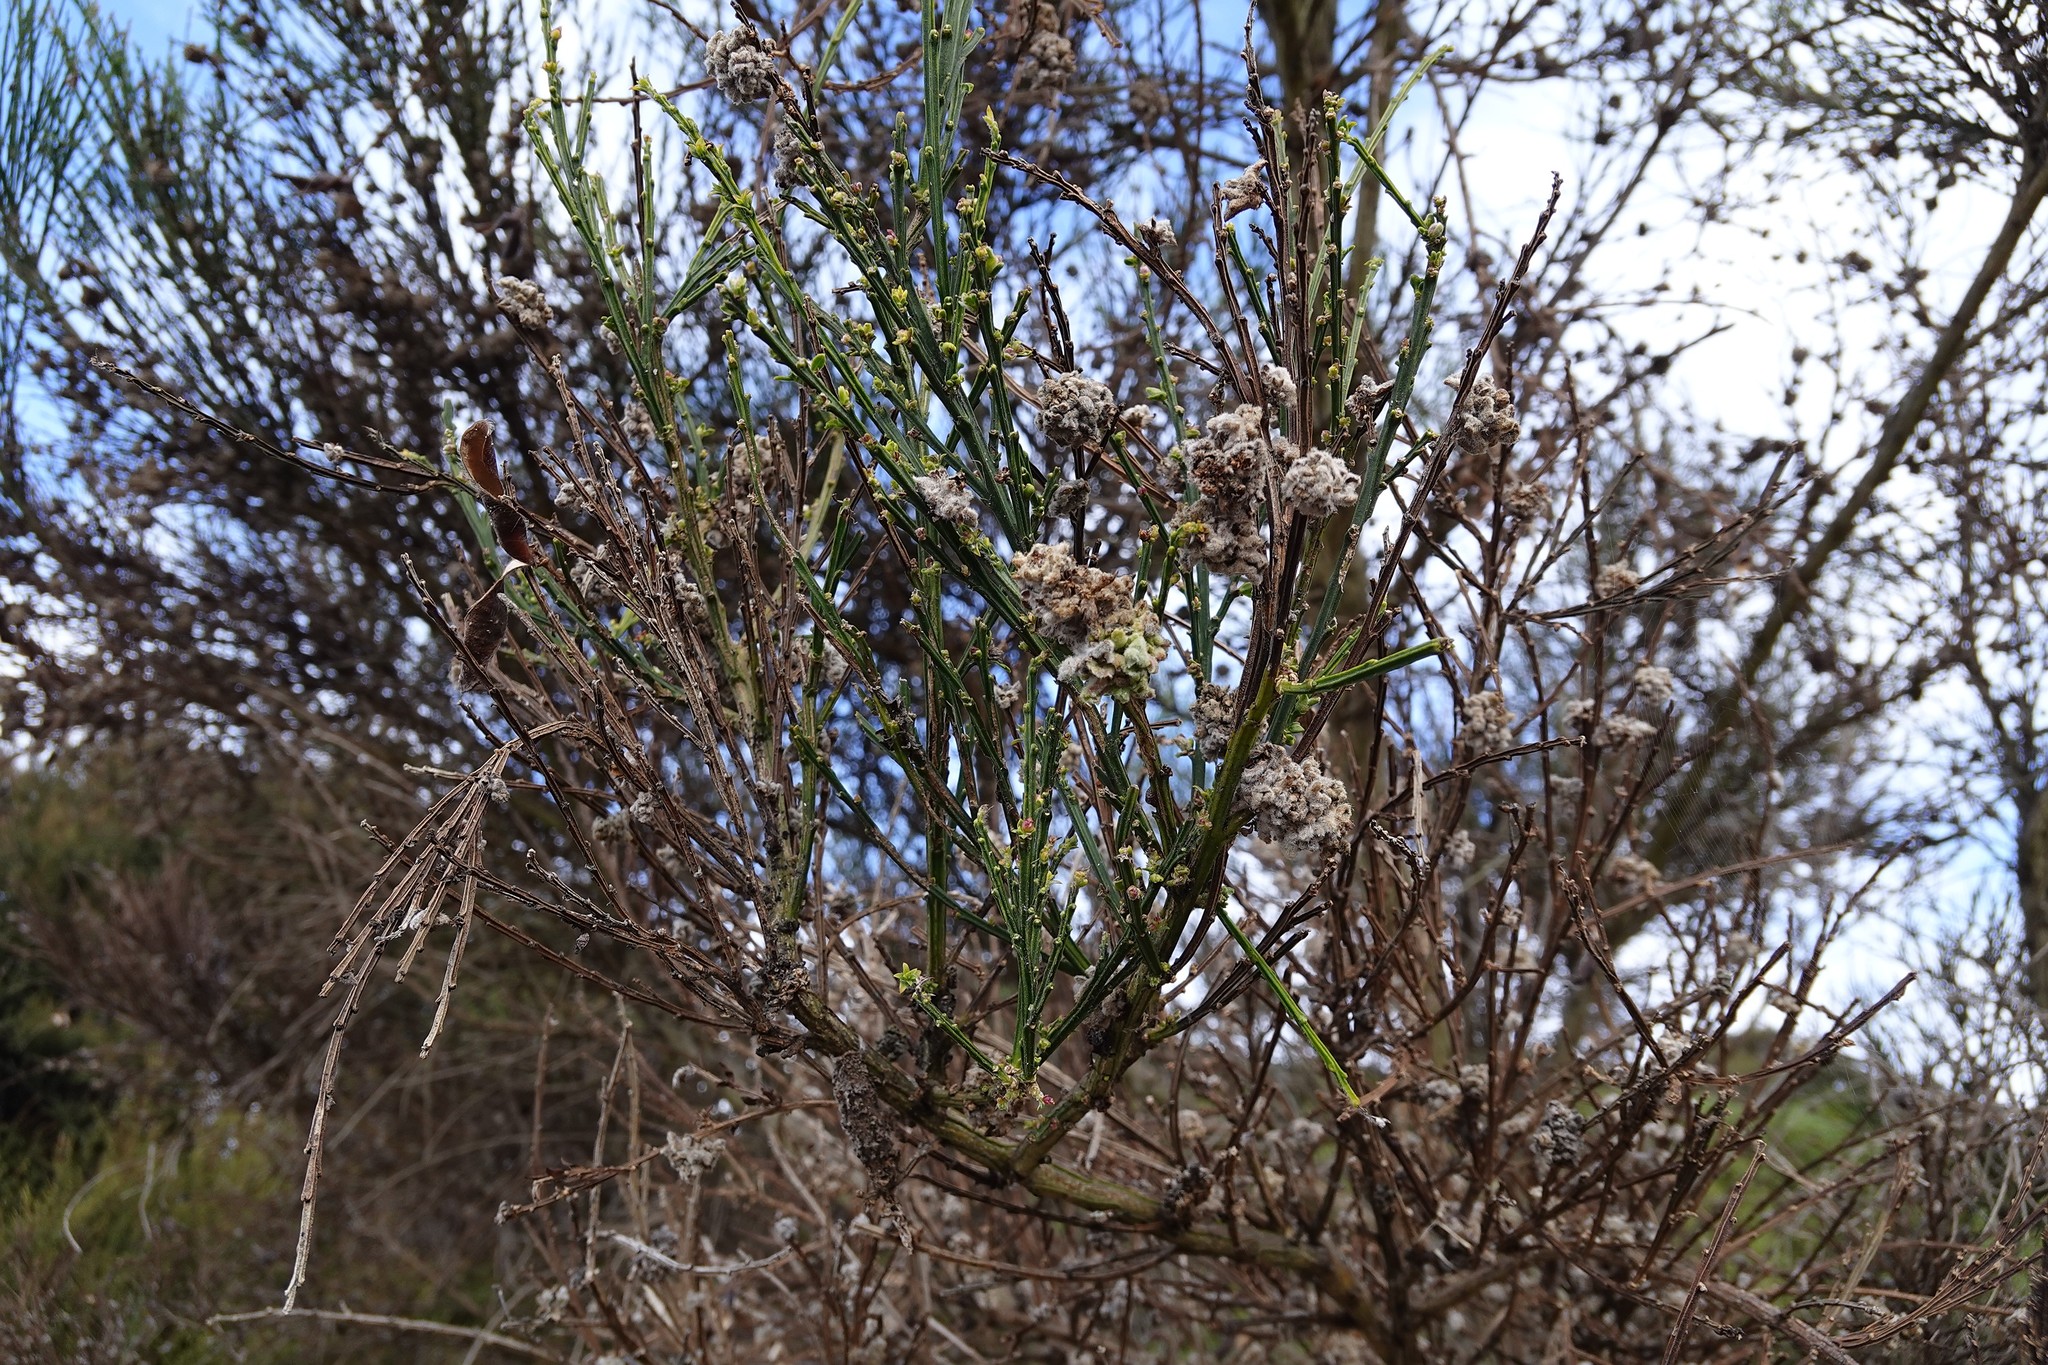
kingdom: Plantae
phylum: Tracheophyta
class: Magnoliopsida
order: Fabales
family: Fabaceae
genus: Cytisus
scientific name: Cytisus scoparius
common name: Scotch broom
